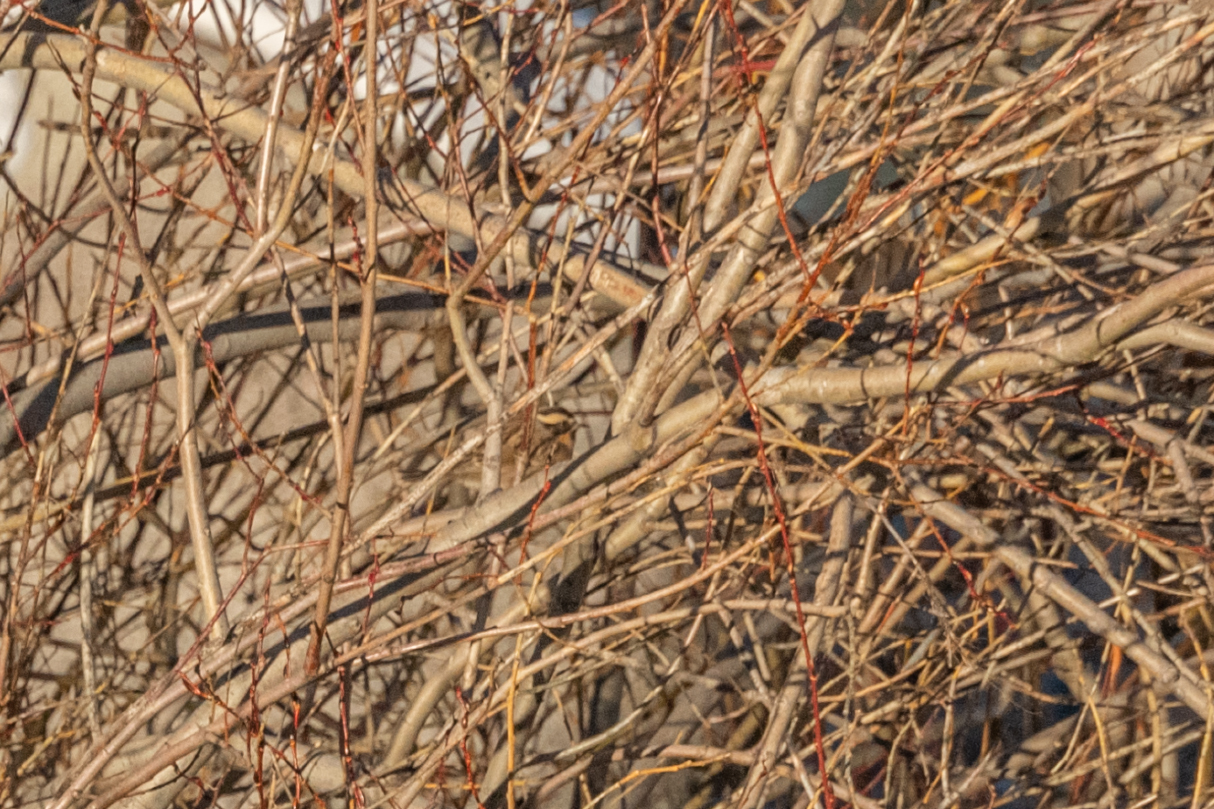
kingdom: Animalia
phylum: Chordata
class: Aves
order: Passeriformes
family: Prunellidae
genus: Prunella
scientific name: Prunella atrogularis
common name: Black-throated accentor
